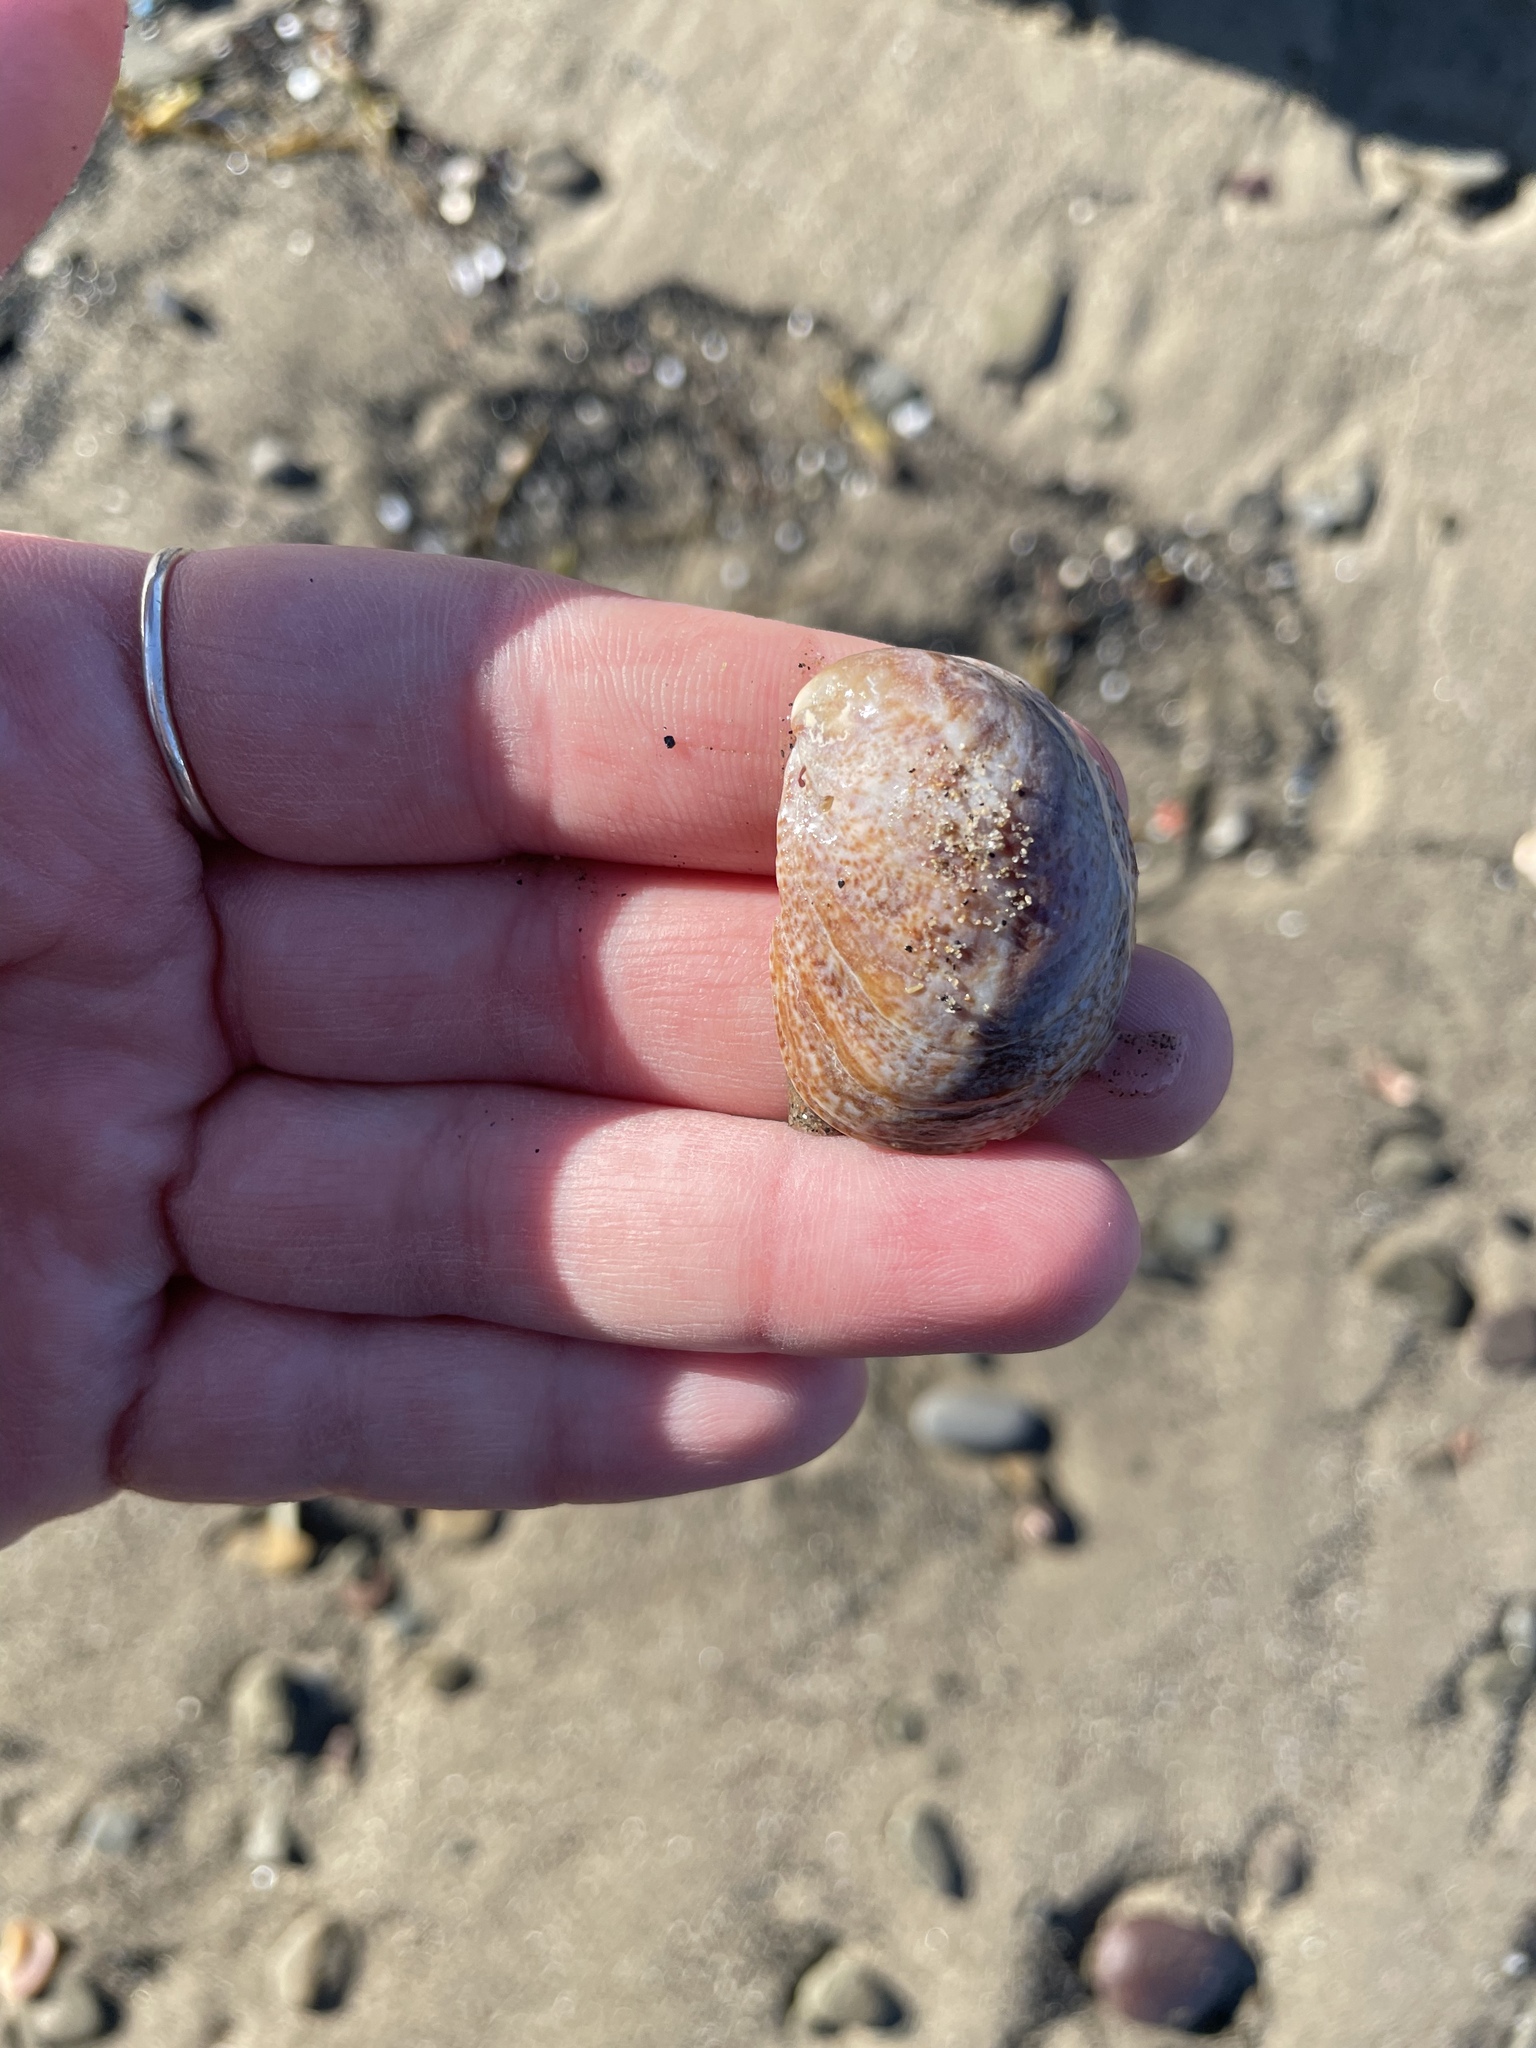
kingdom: Animalia
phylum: Mollusca
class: Gastropoda
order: Littorinimorpha
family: Calyptraeidae
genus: Crepidula
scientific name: Crepidula fornicata
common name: Slipper limpet
